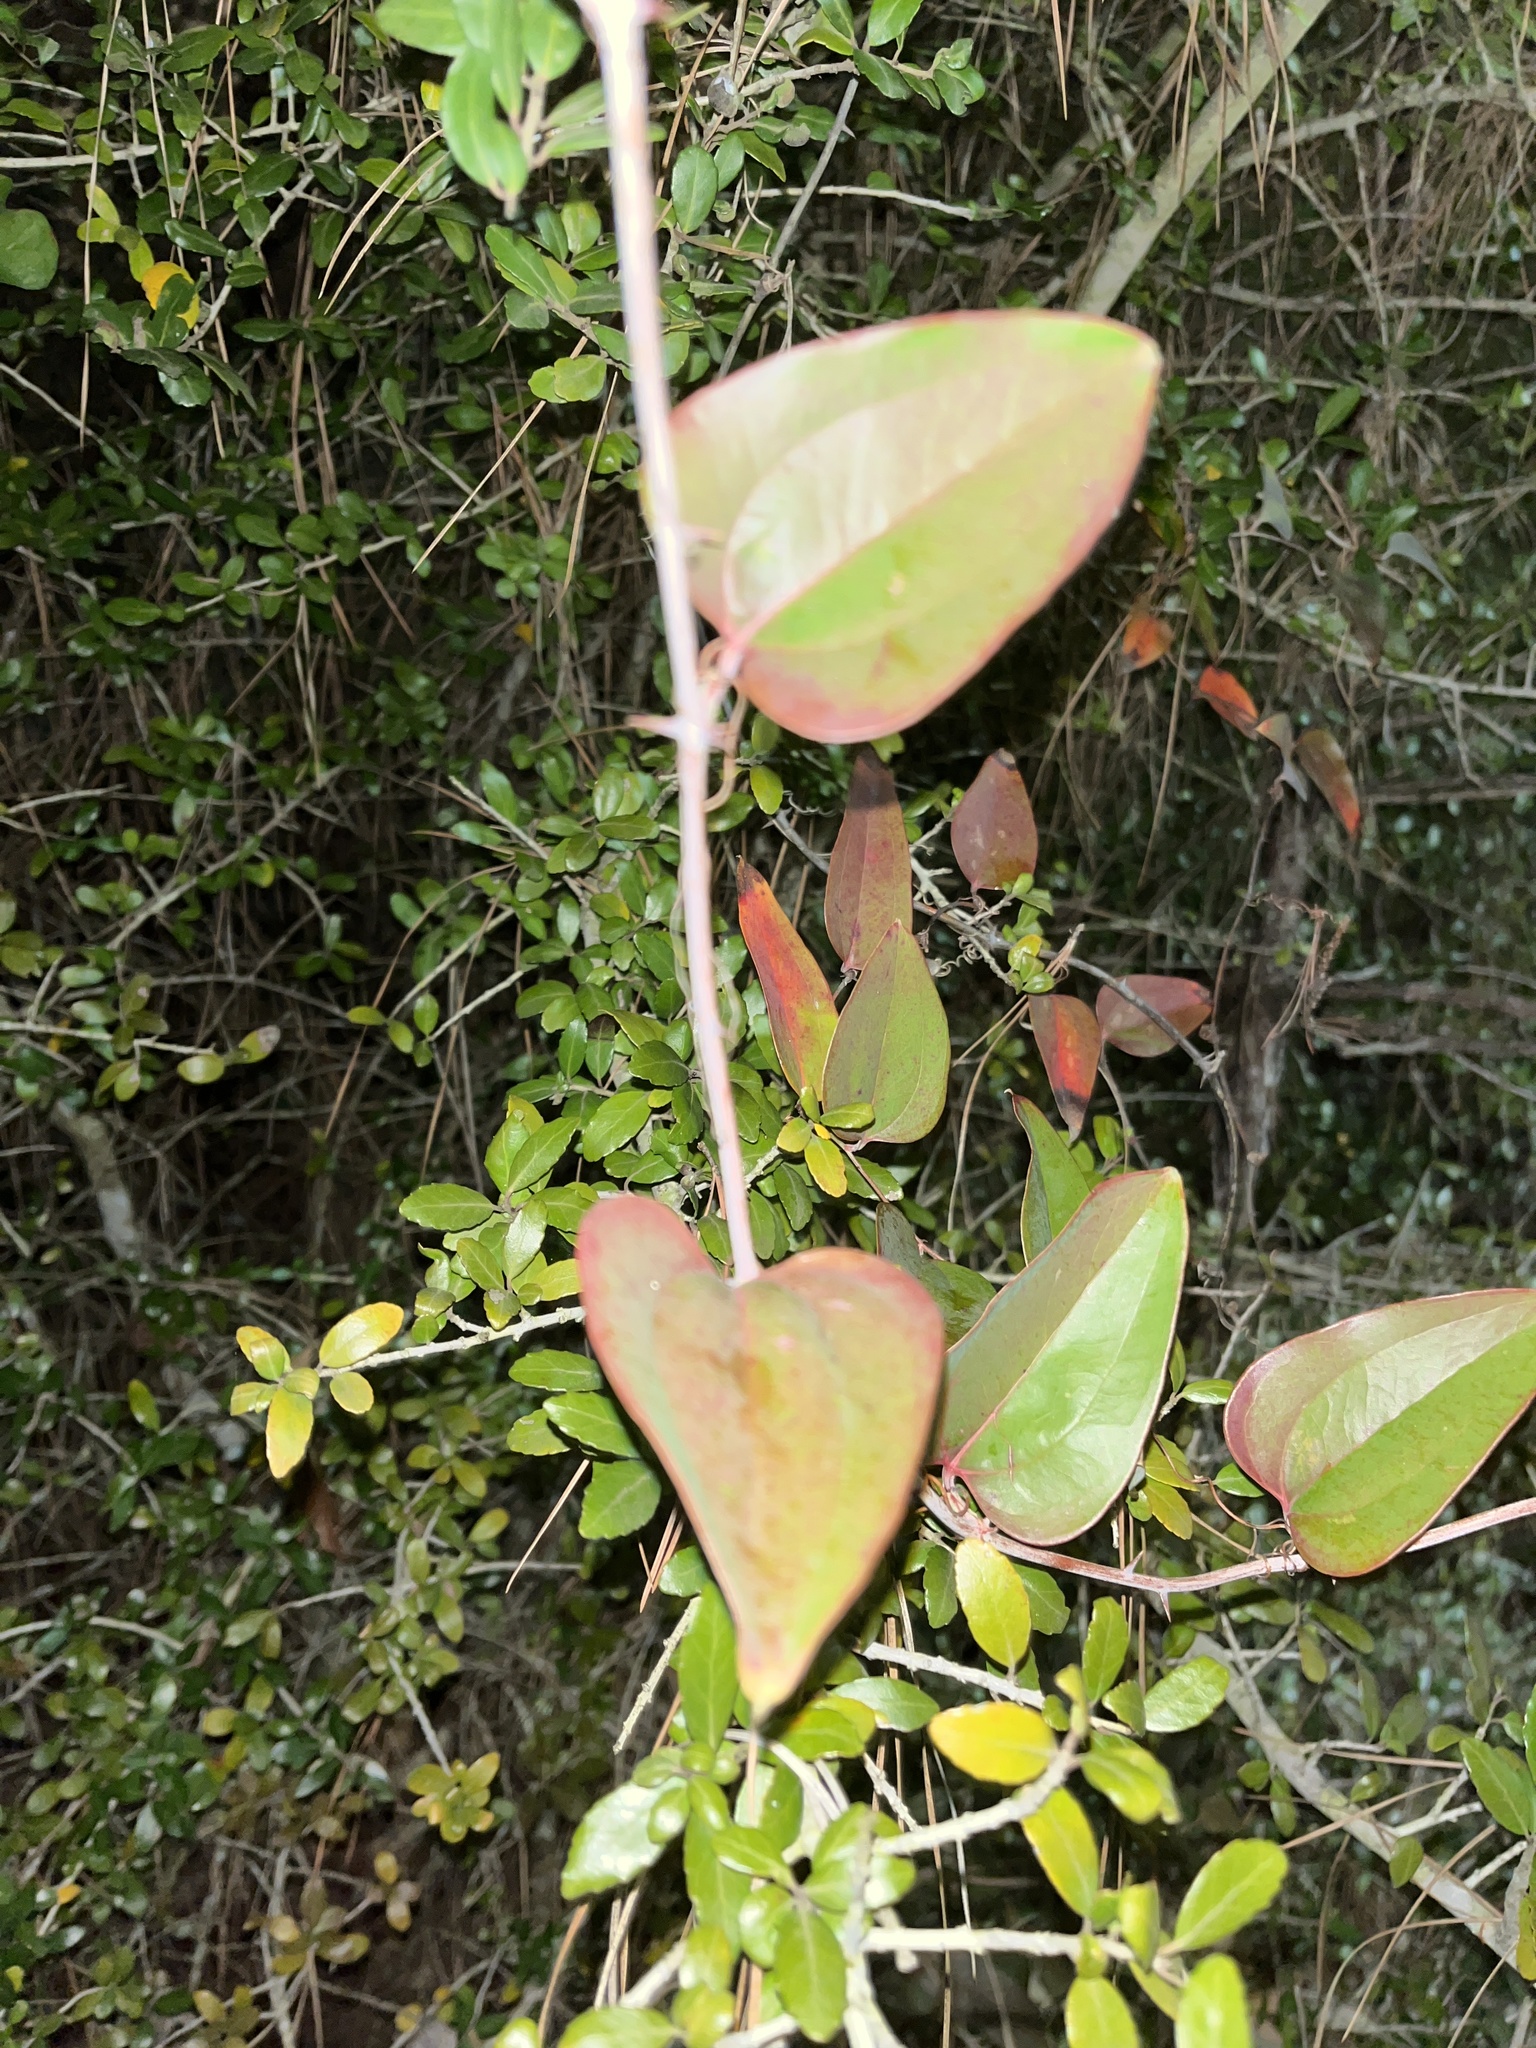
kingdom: Plantae
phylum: Tracheophyta
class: Liliopsida
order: Liliales
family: Smilacaceae
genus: Smilax
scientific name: Smilax glauca
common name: Cat greenbrier
